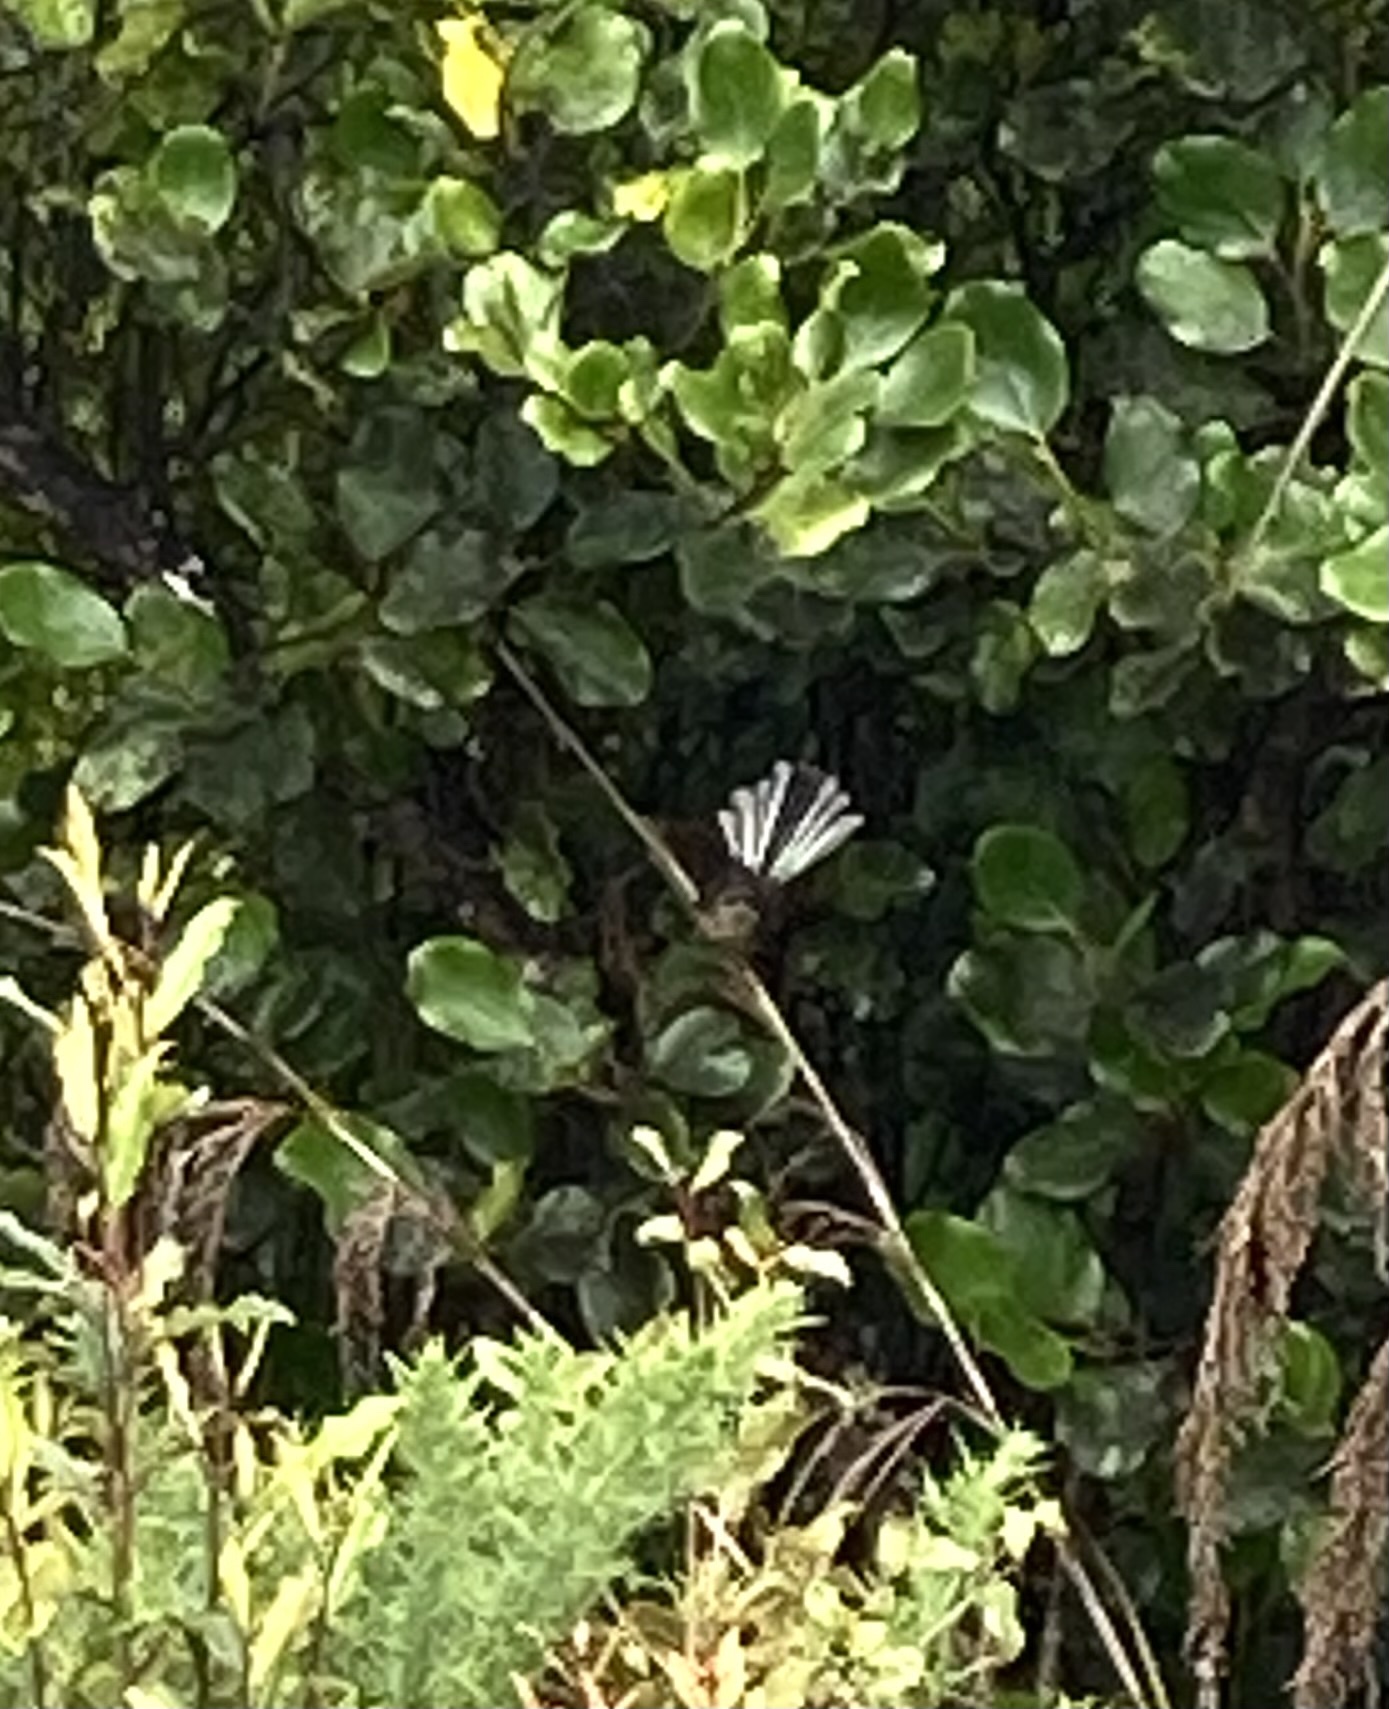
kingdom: Animalia
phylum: Chordata
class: Aves
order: Passeriformes
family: Rhipiduridae
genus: Rhipidura
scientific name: Rhipidura fuliginosa
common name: New zealand fantail
